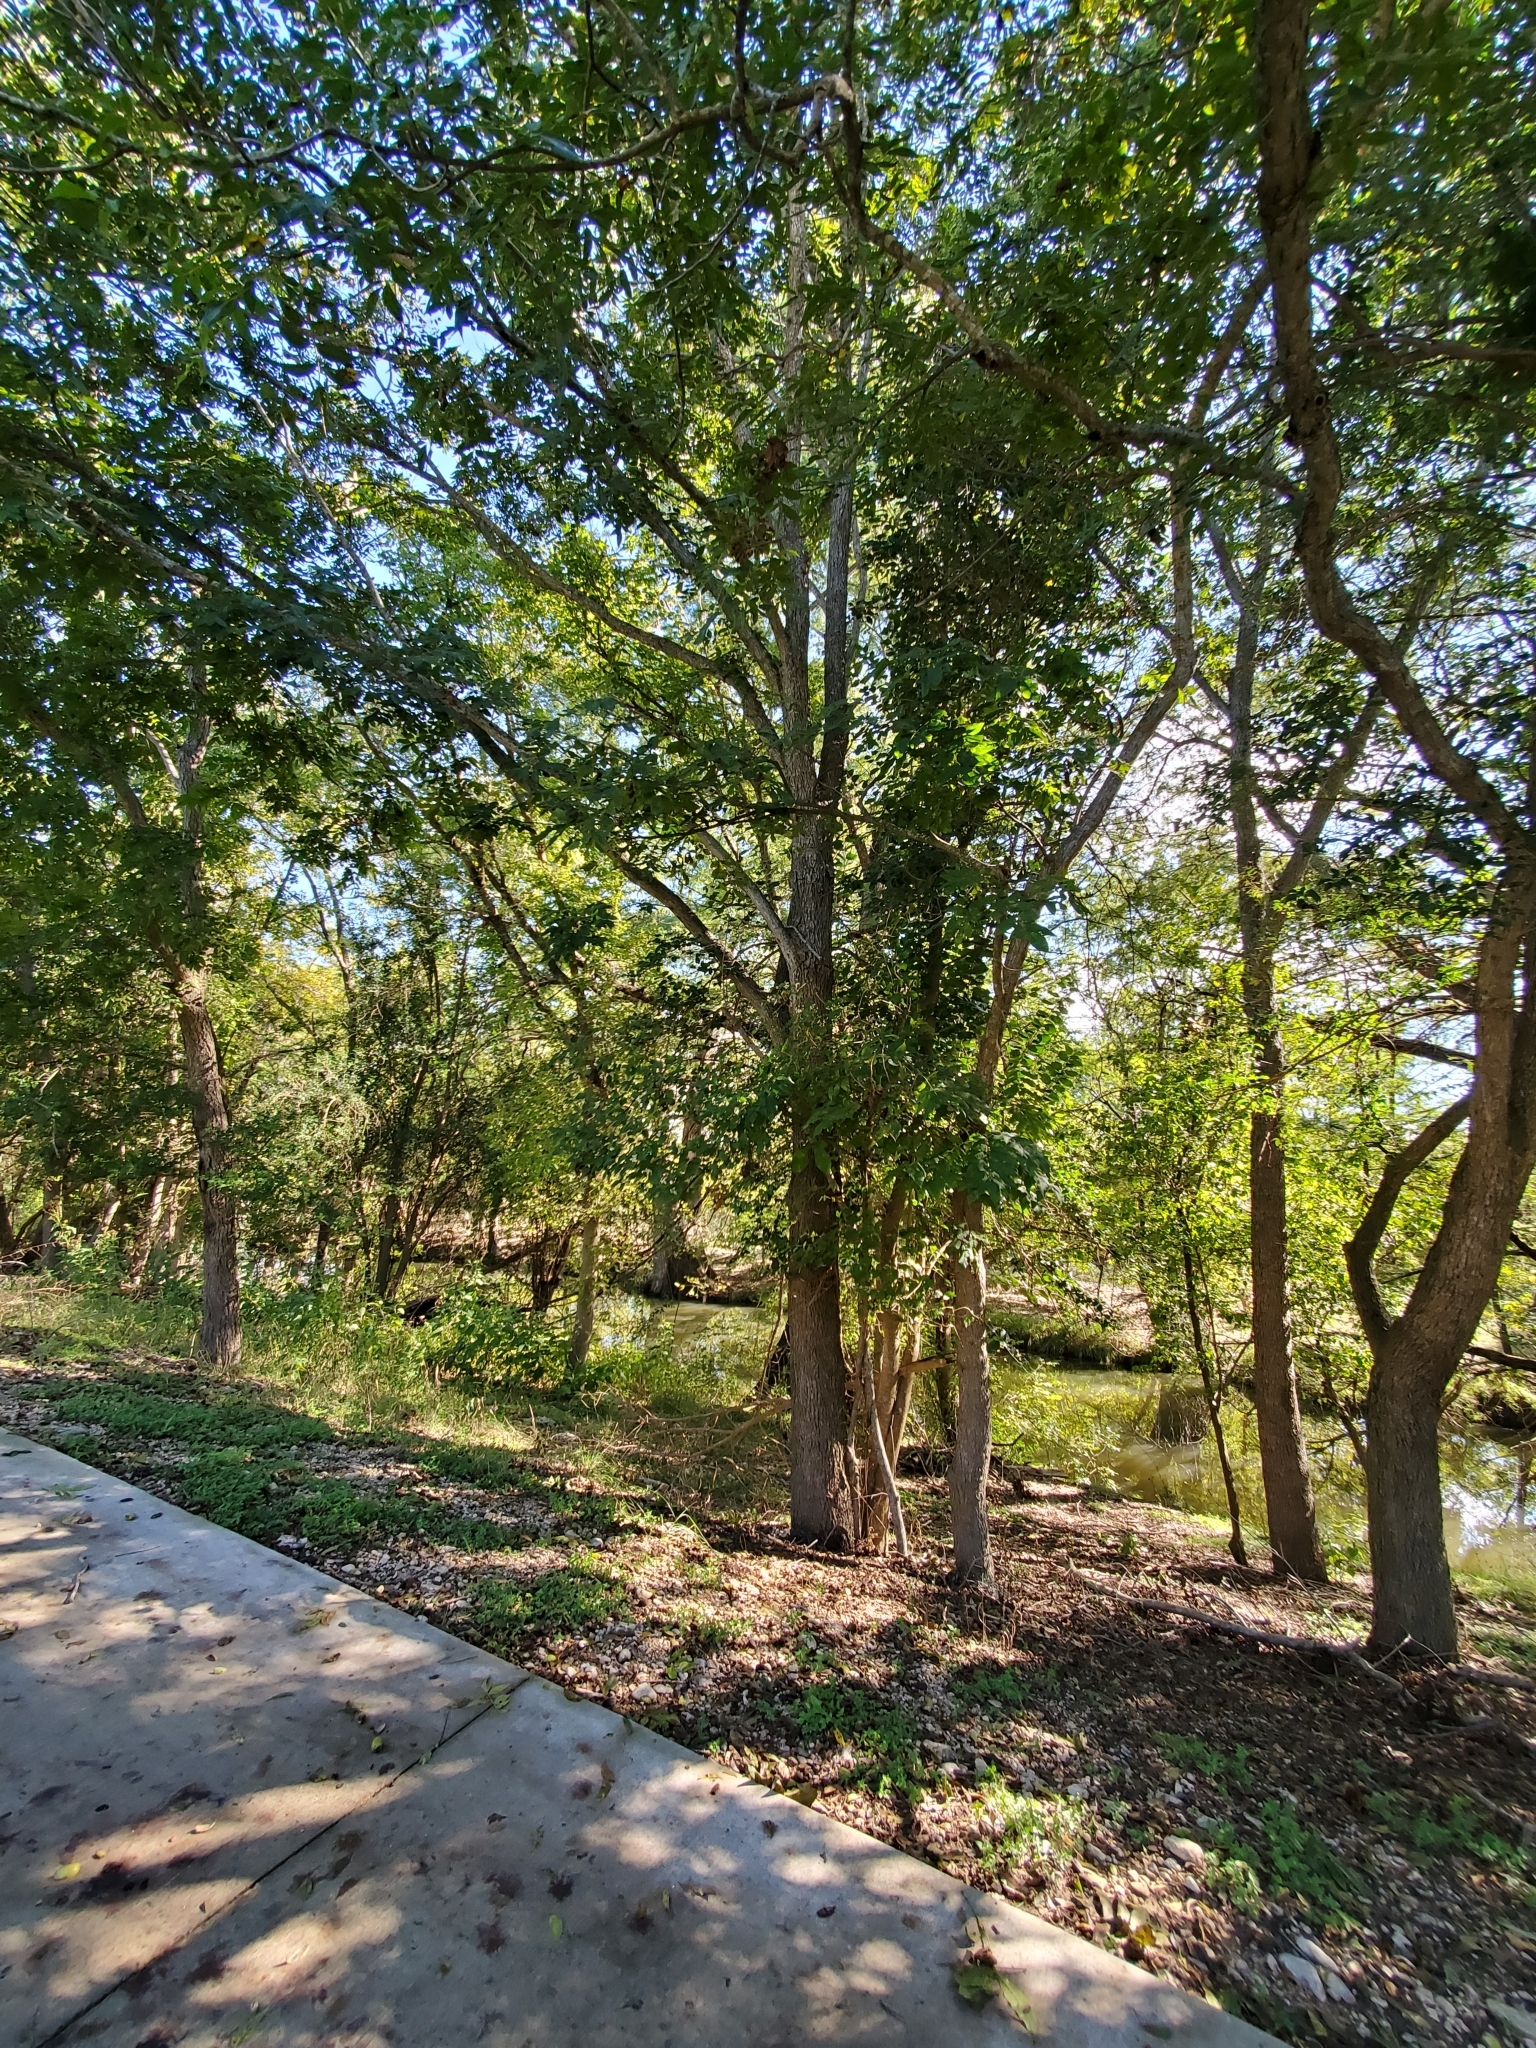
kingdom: Plantae
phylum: Tracheophyta
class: Magnoliopsida
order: Cornales
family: Cornaceae
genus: Cornus
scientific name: Cornus drummondii
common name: Rough-leaf dogwood
